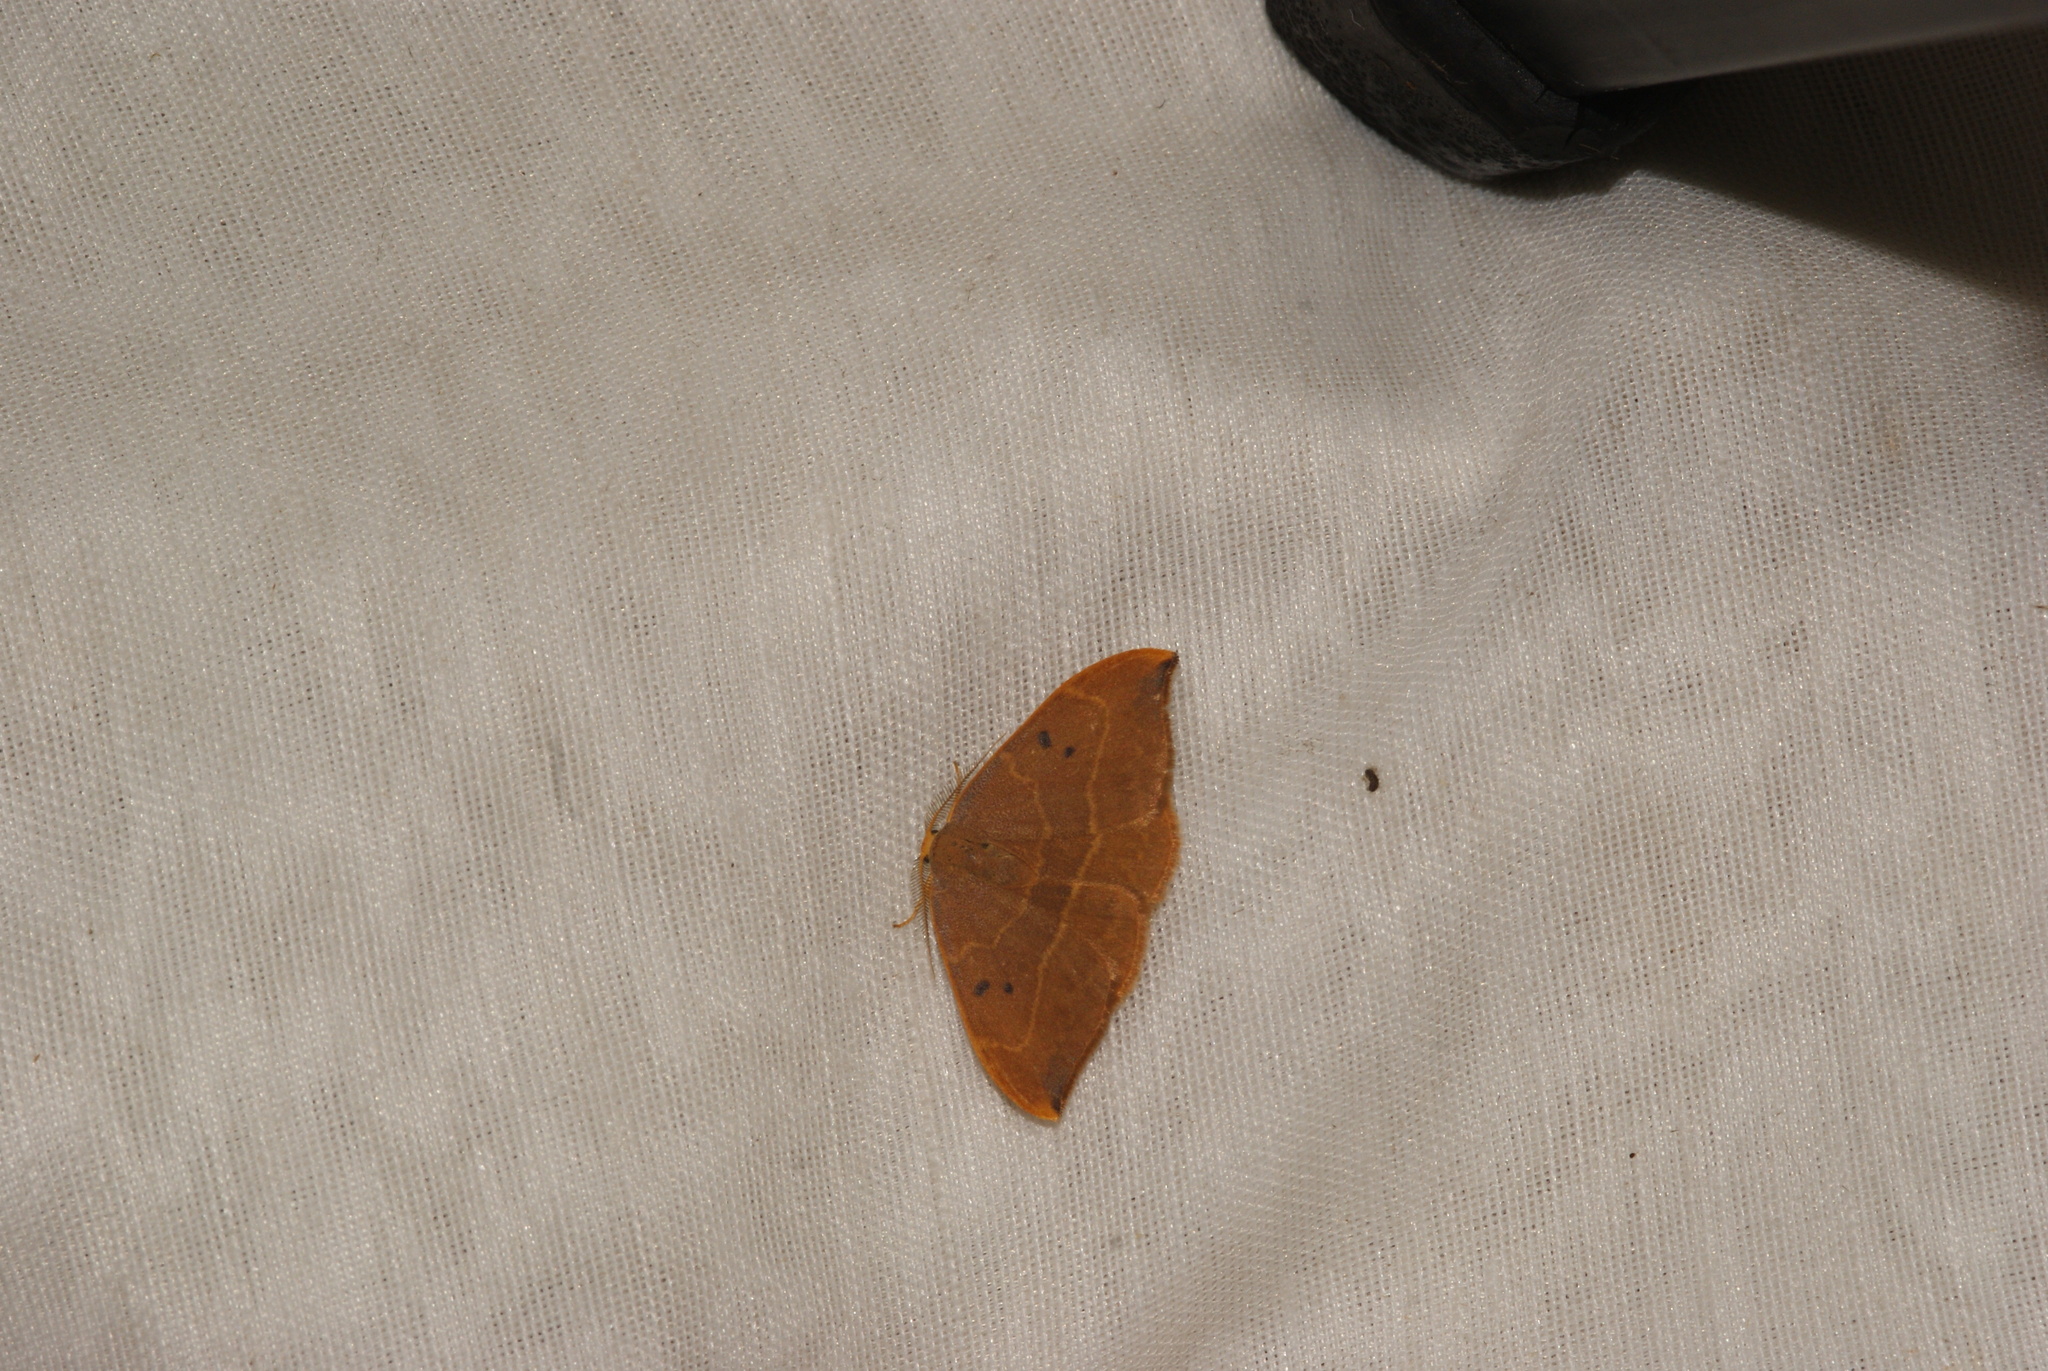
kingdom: Animalia
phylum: Arthropoda
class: Insecta
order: Lepidoptera
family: Drepanidae
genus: Watsonalla
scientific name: Watsonalla binaria
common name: Oak hook-tip
